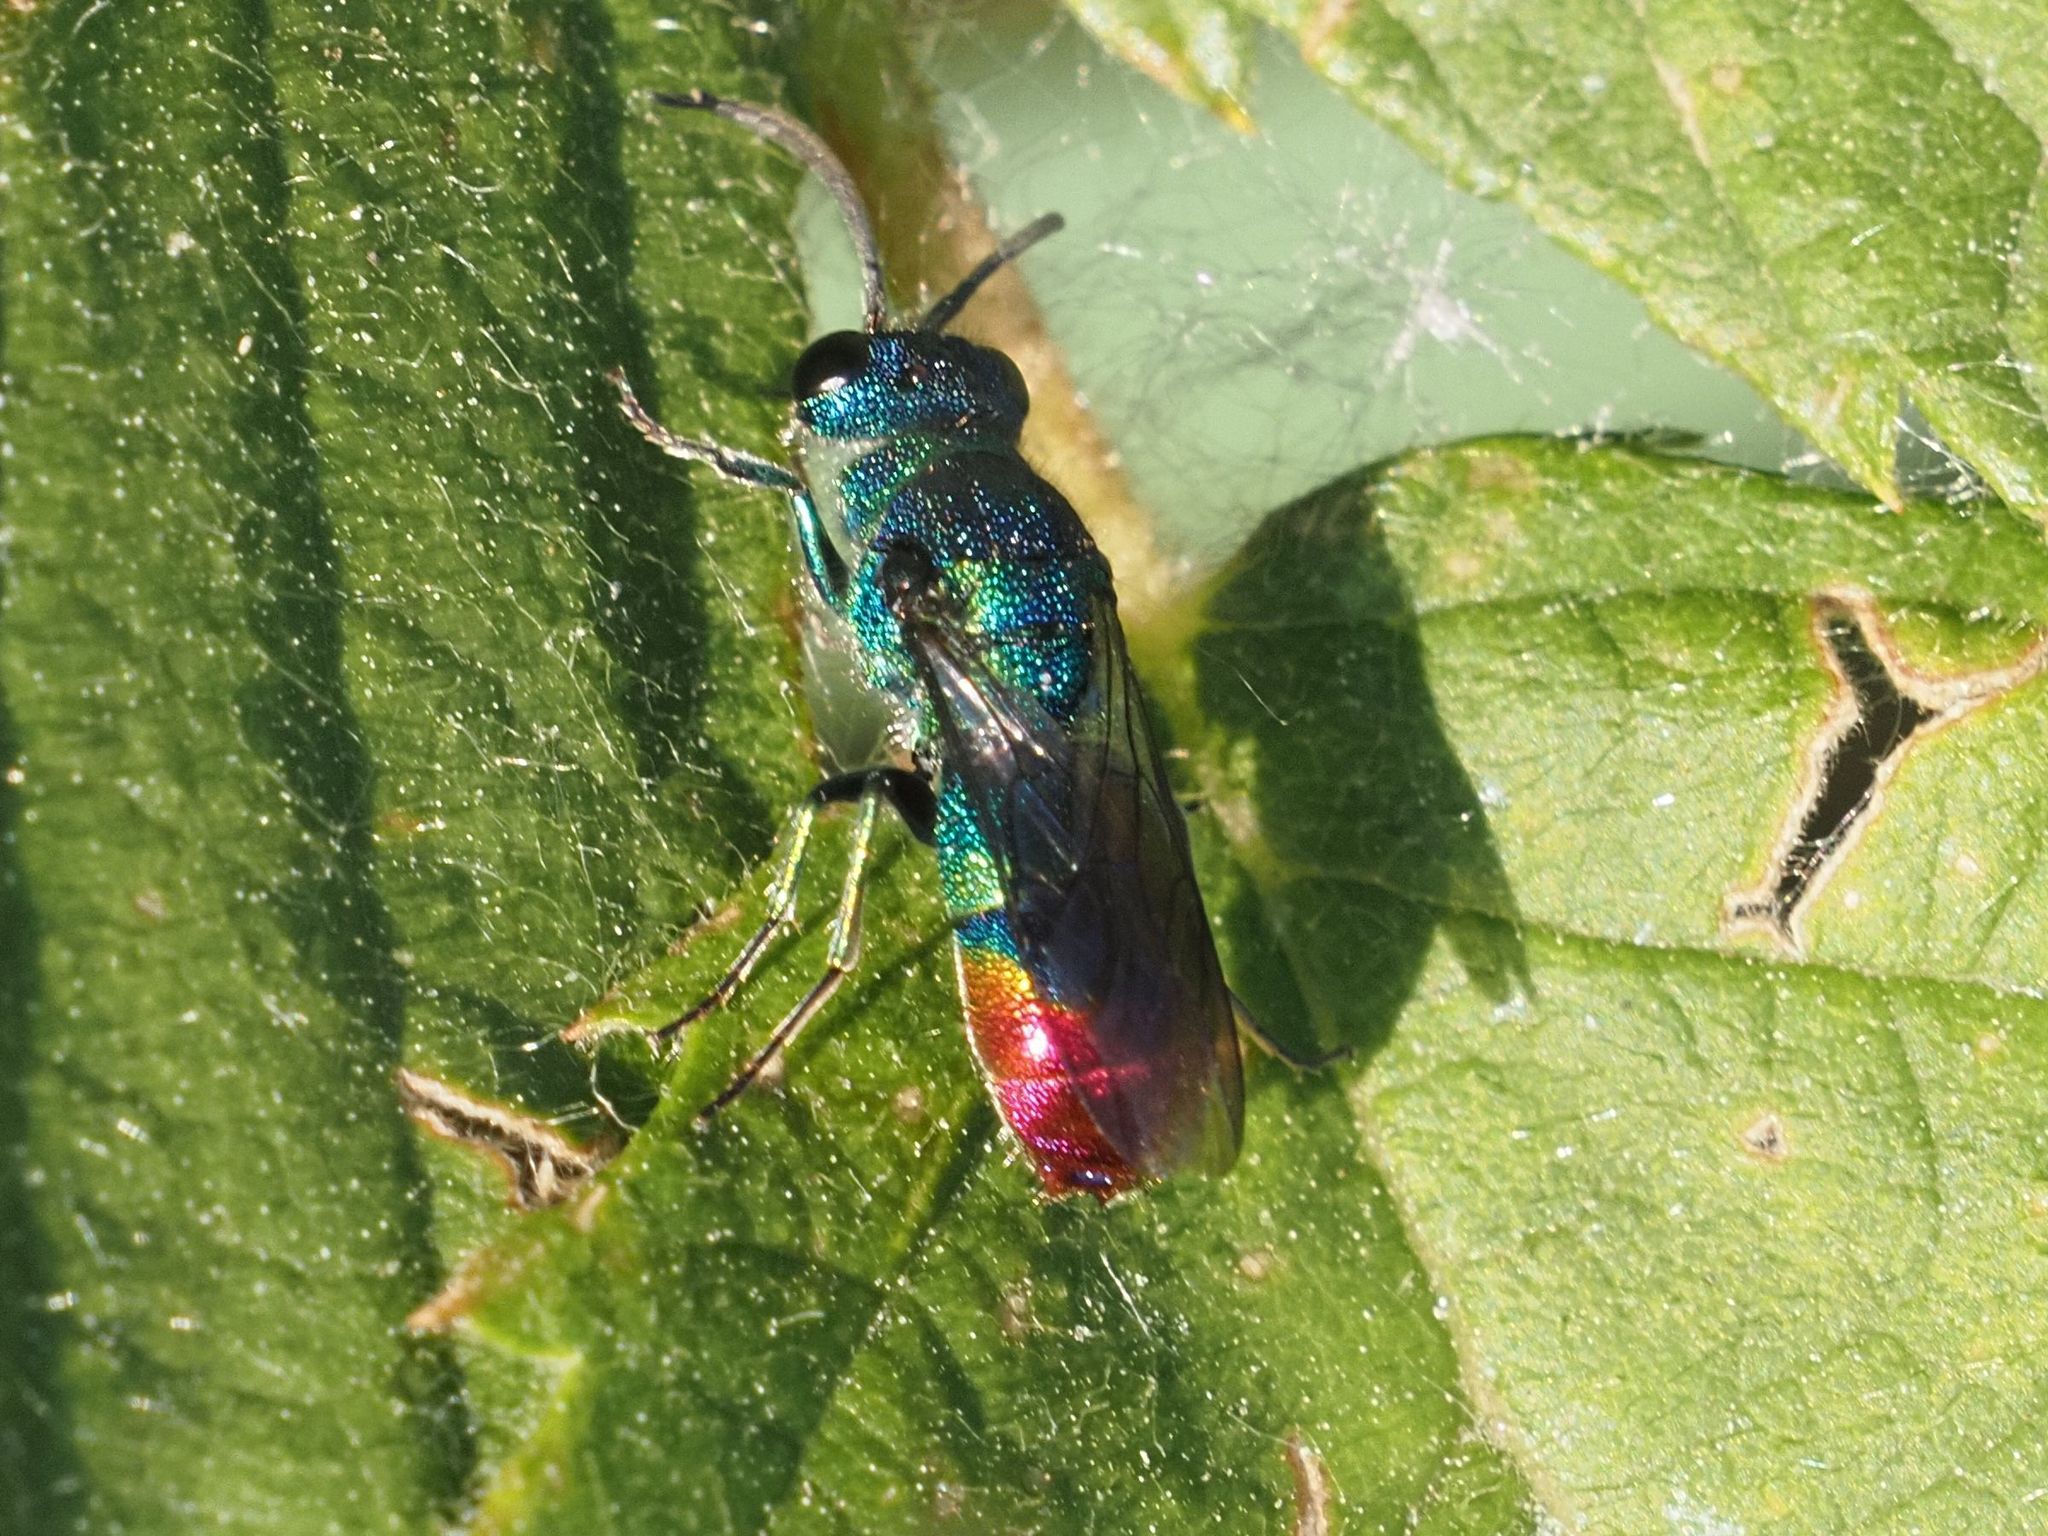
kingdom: Animalia
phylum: Arthropoda
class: Insecta
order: Hymenoptera
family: Chrysididae
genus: Chrysis
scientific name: Chrysis fulgida
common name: Shimmering ruby-tail
